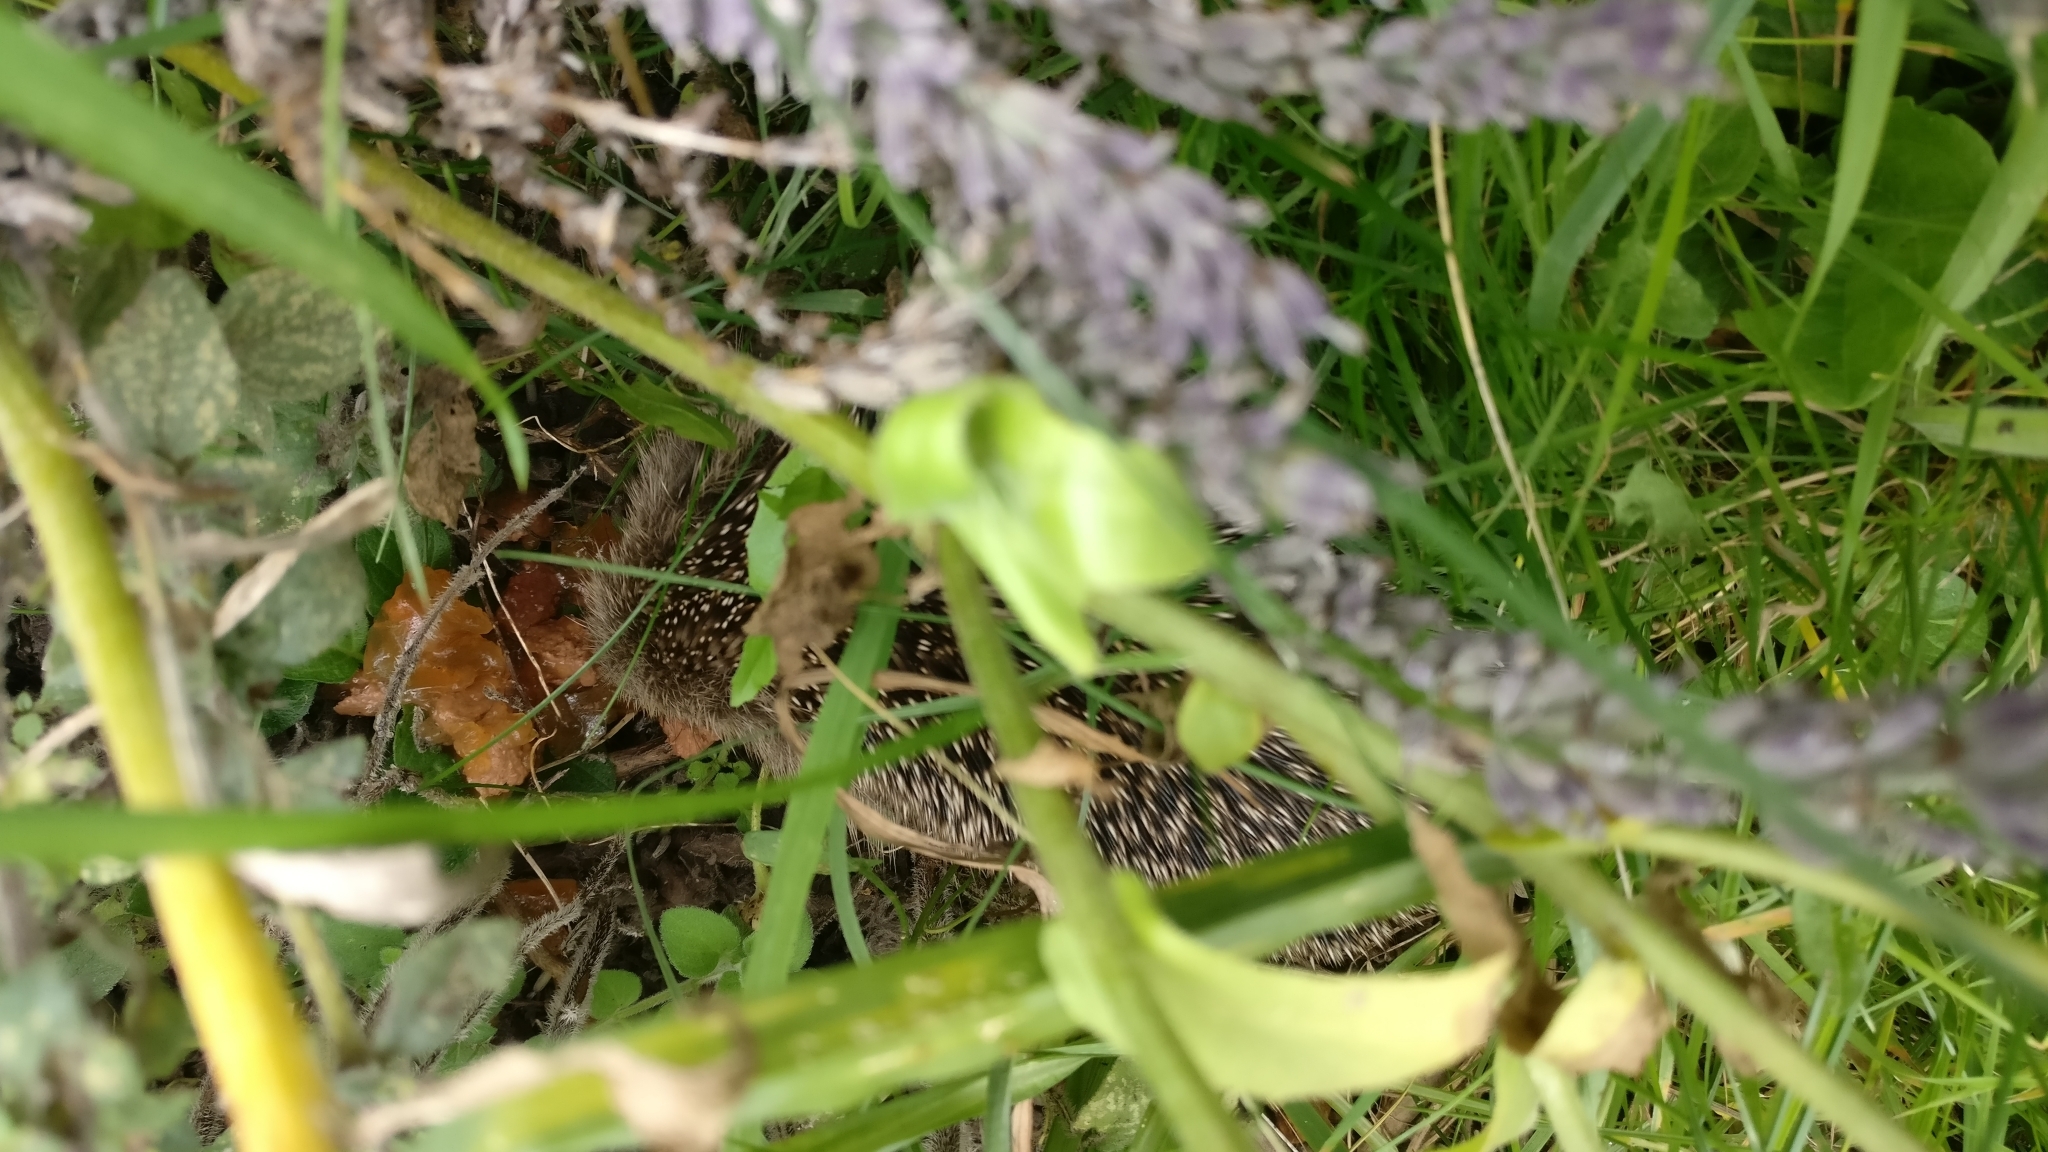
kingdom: Animalia
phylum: Chordata
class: Mammalia
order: Erinaceomorpha
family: Erinaceidae
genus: Erinaceus
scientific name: Erinaceus europaeus
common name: West european hedgehog
